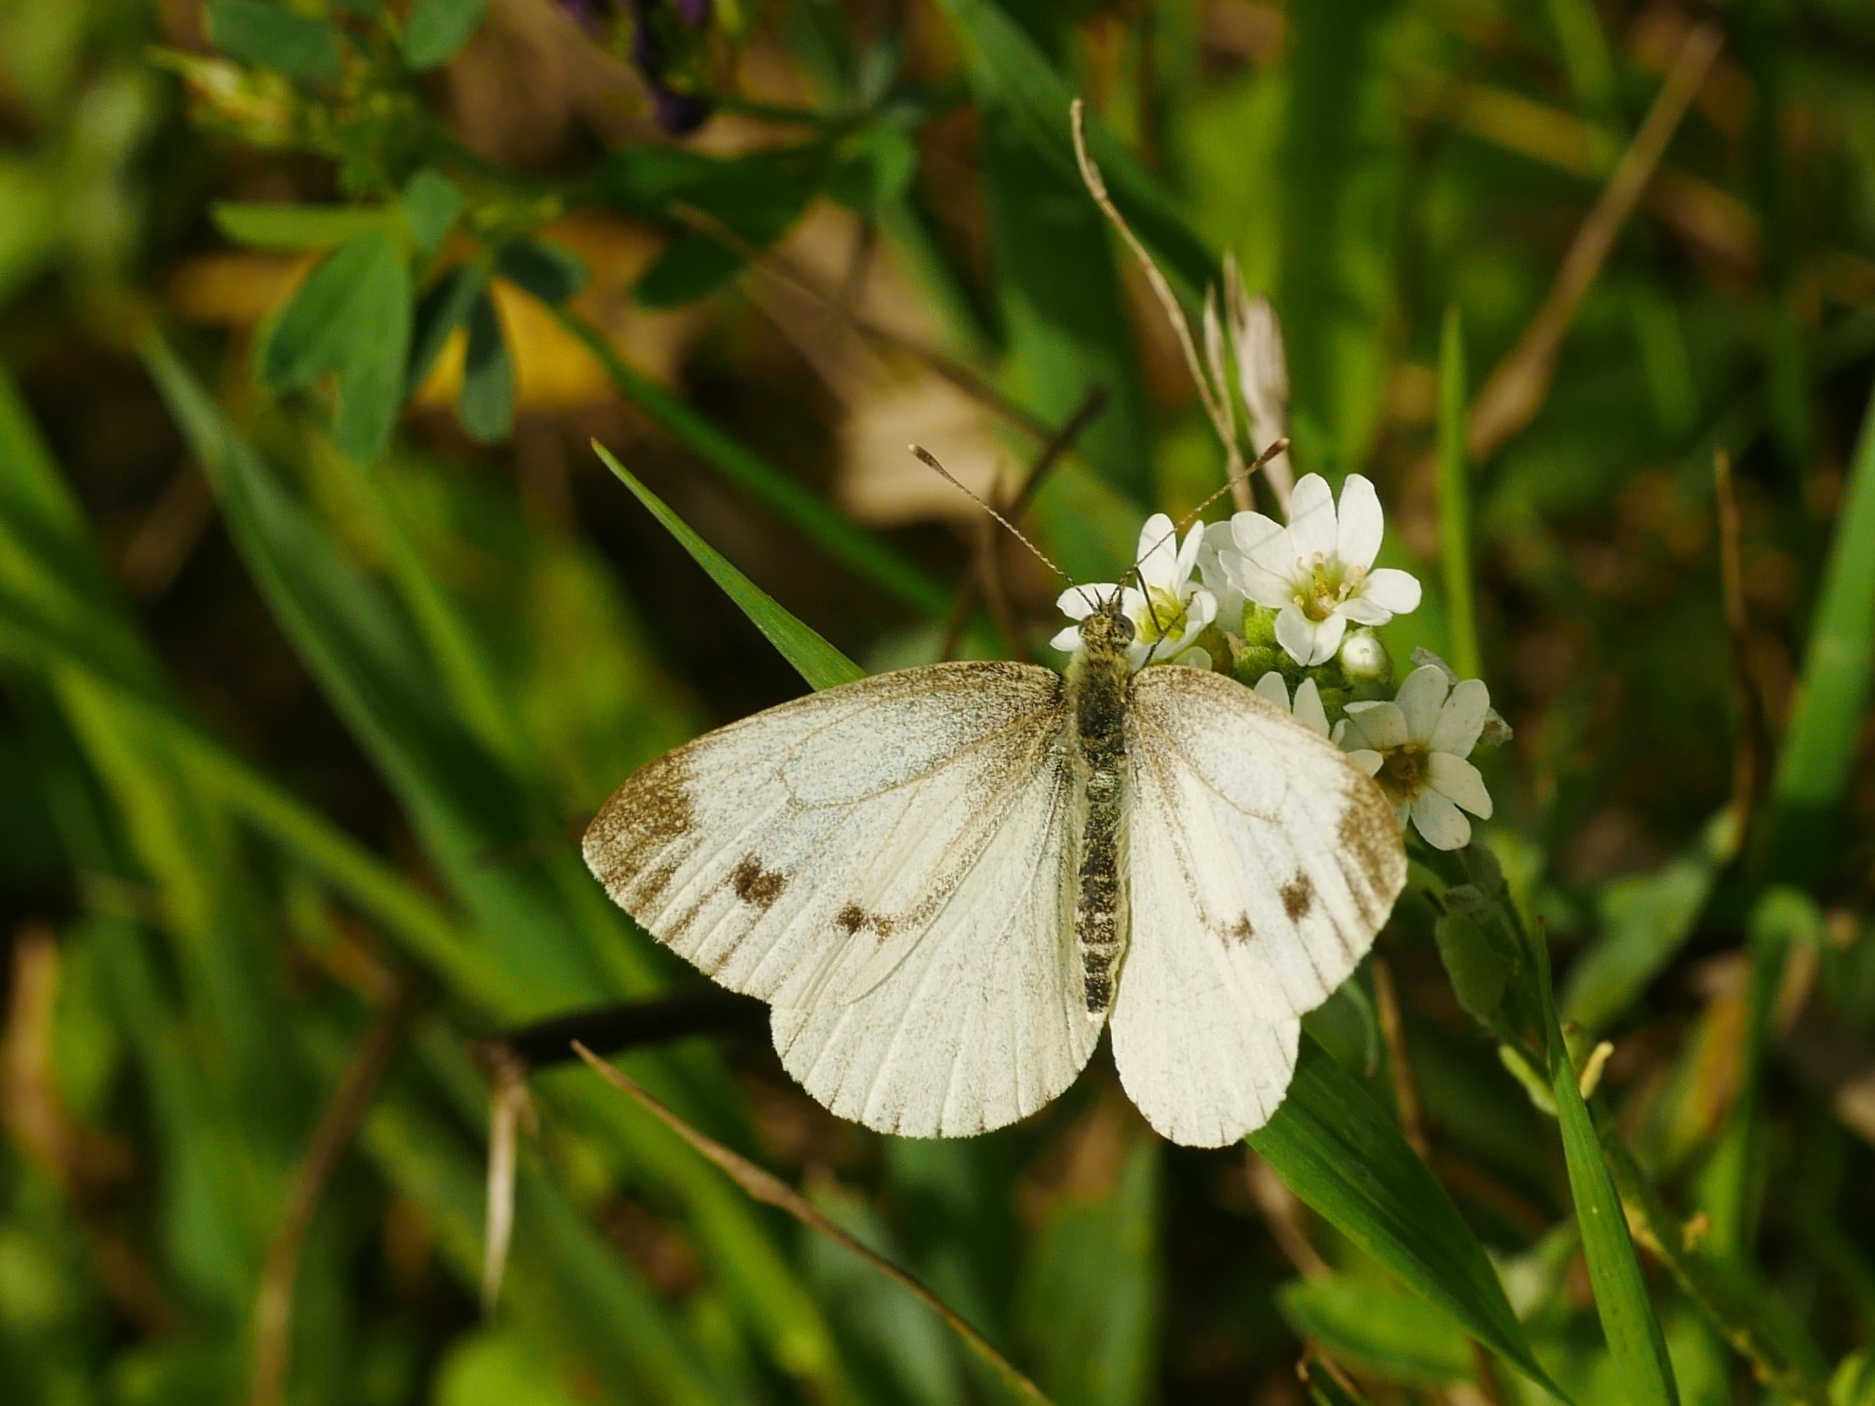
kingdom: Animalia
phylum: Arthropoda
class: Insecta
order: Lepidoptera
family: Pieridae
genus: Pieris
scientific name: Pieris napi
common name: Green-veined white
